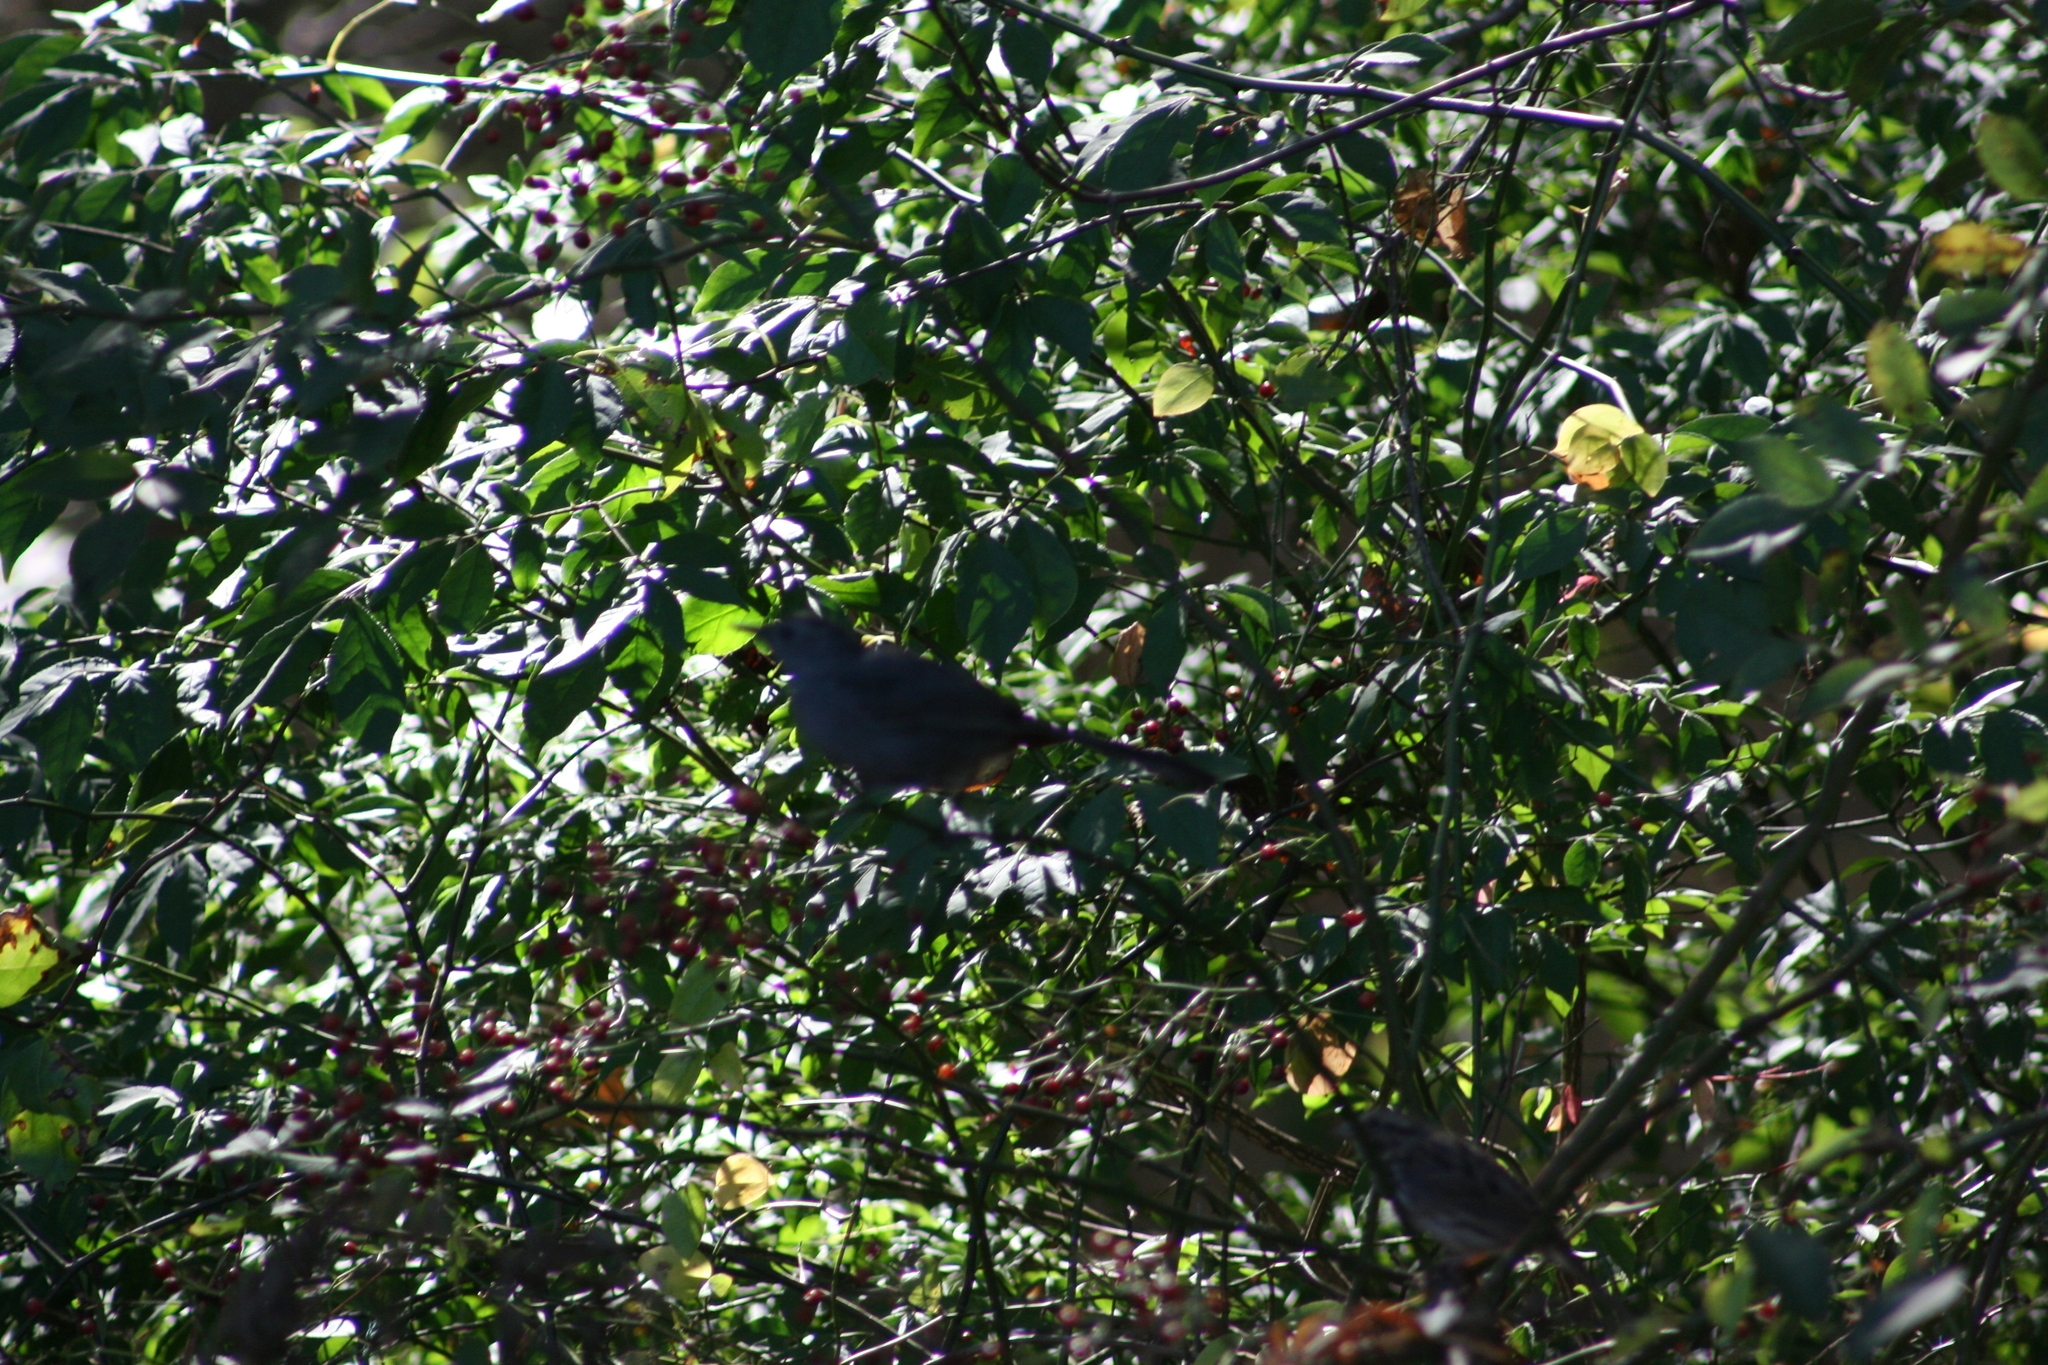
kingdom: Animalia
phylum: Chordata
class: Aves
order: Passeriformes
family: Mimidae
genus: Dumetella
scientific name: Dumetella carolinensis
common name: Gray catbird
